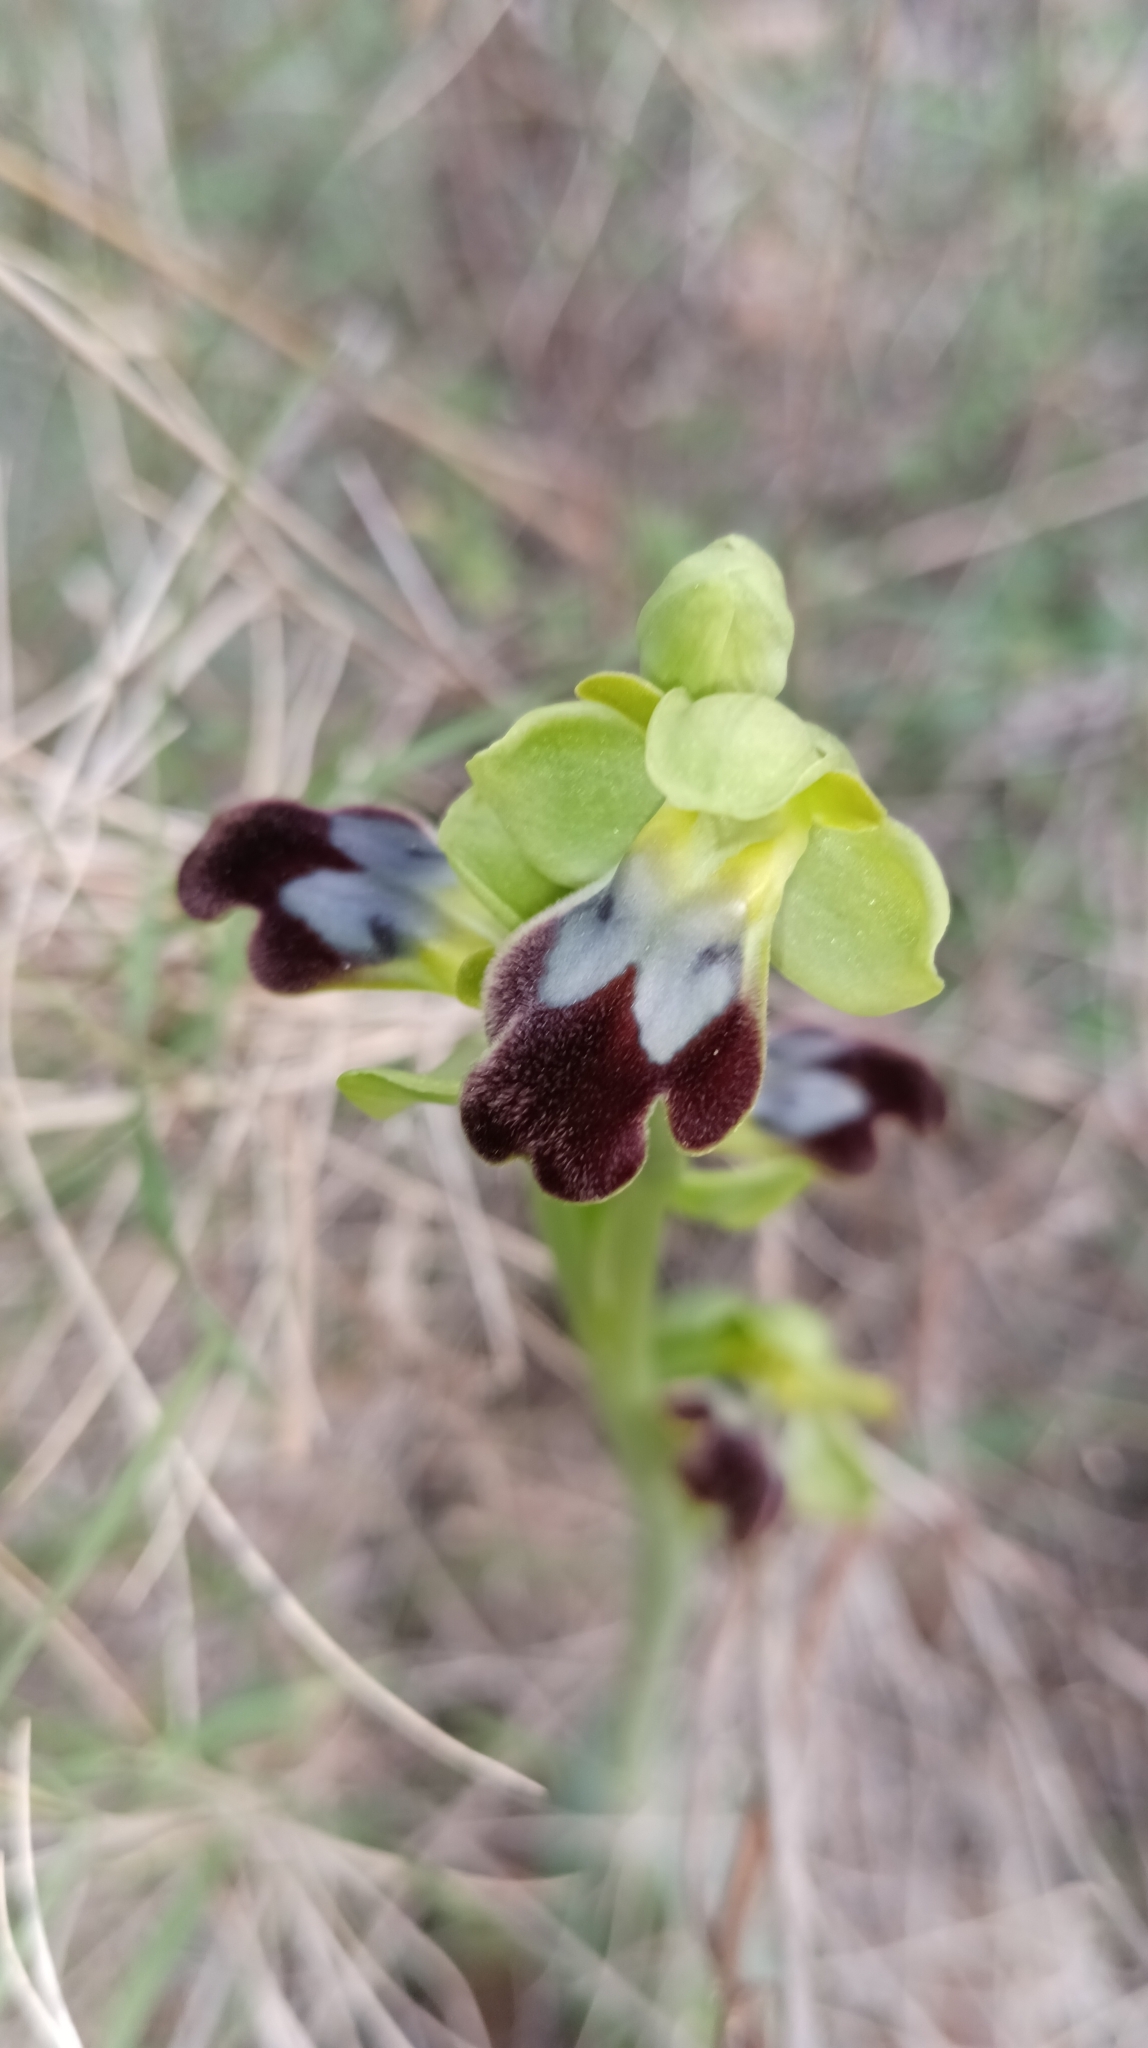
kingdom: Plantae
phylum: Tracheophyta
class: Liliopsida
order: Asparagales
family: Orchidaceae
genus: Ophrys
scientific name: Ophrys fusca
